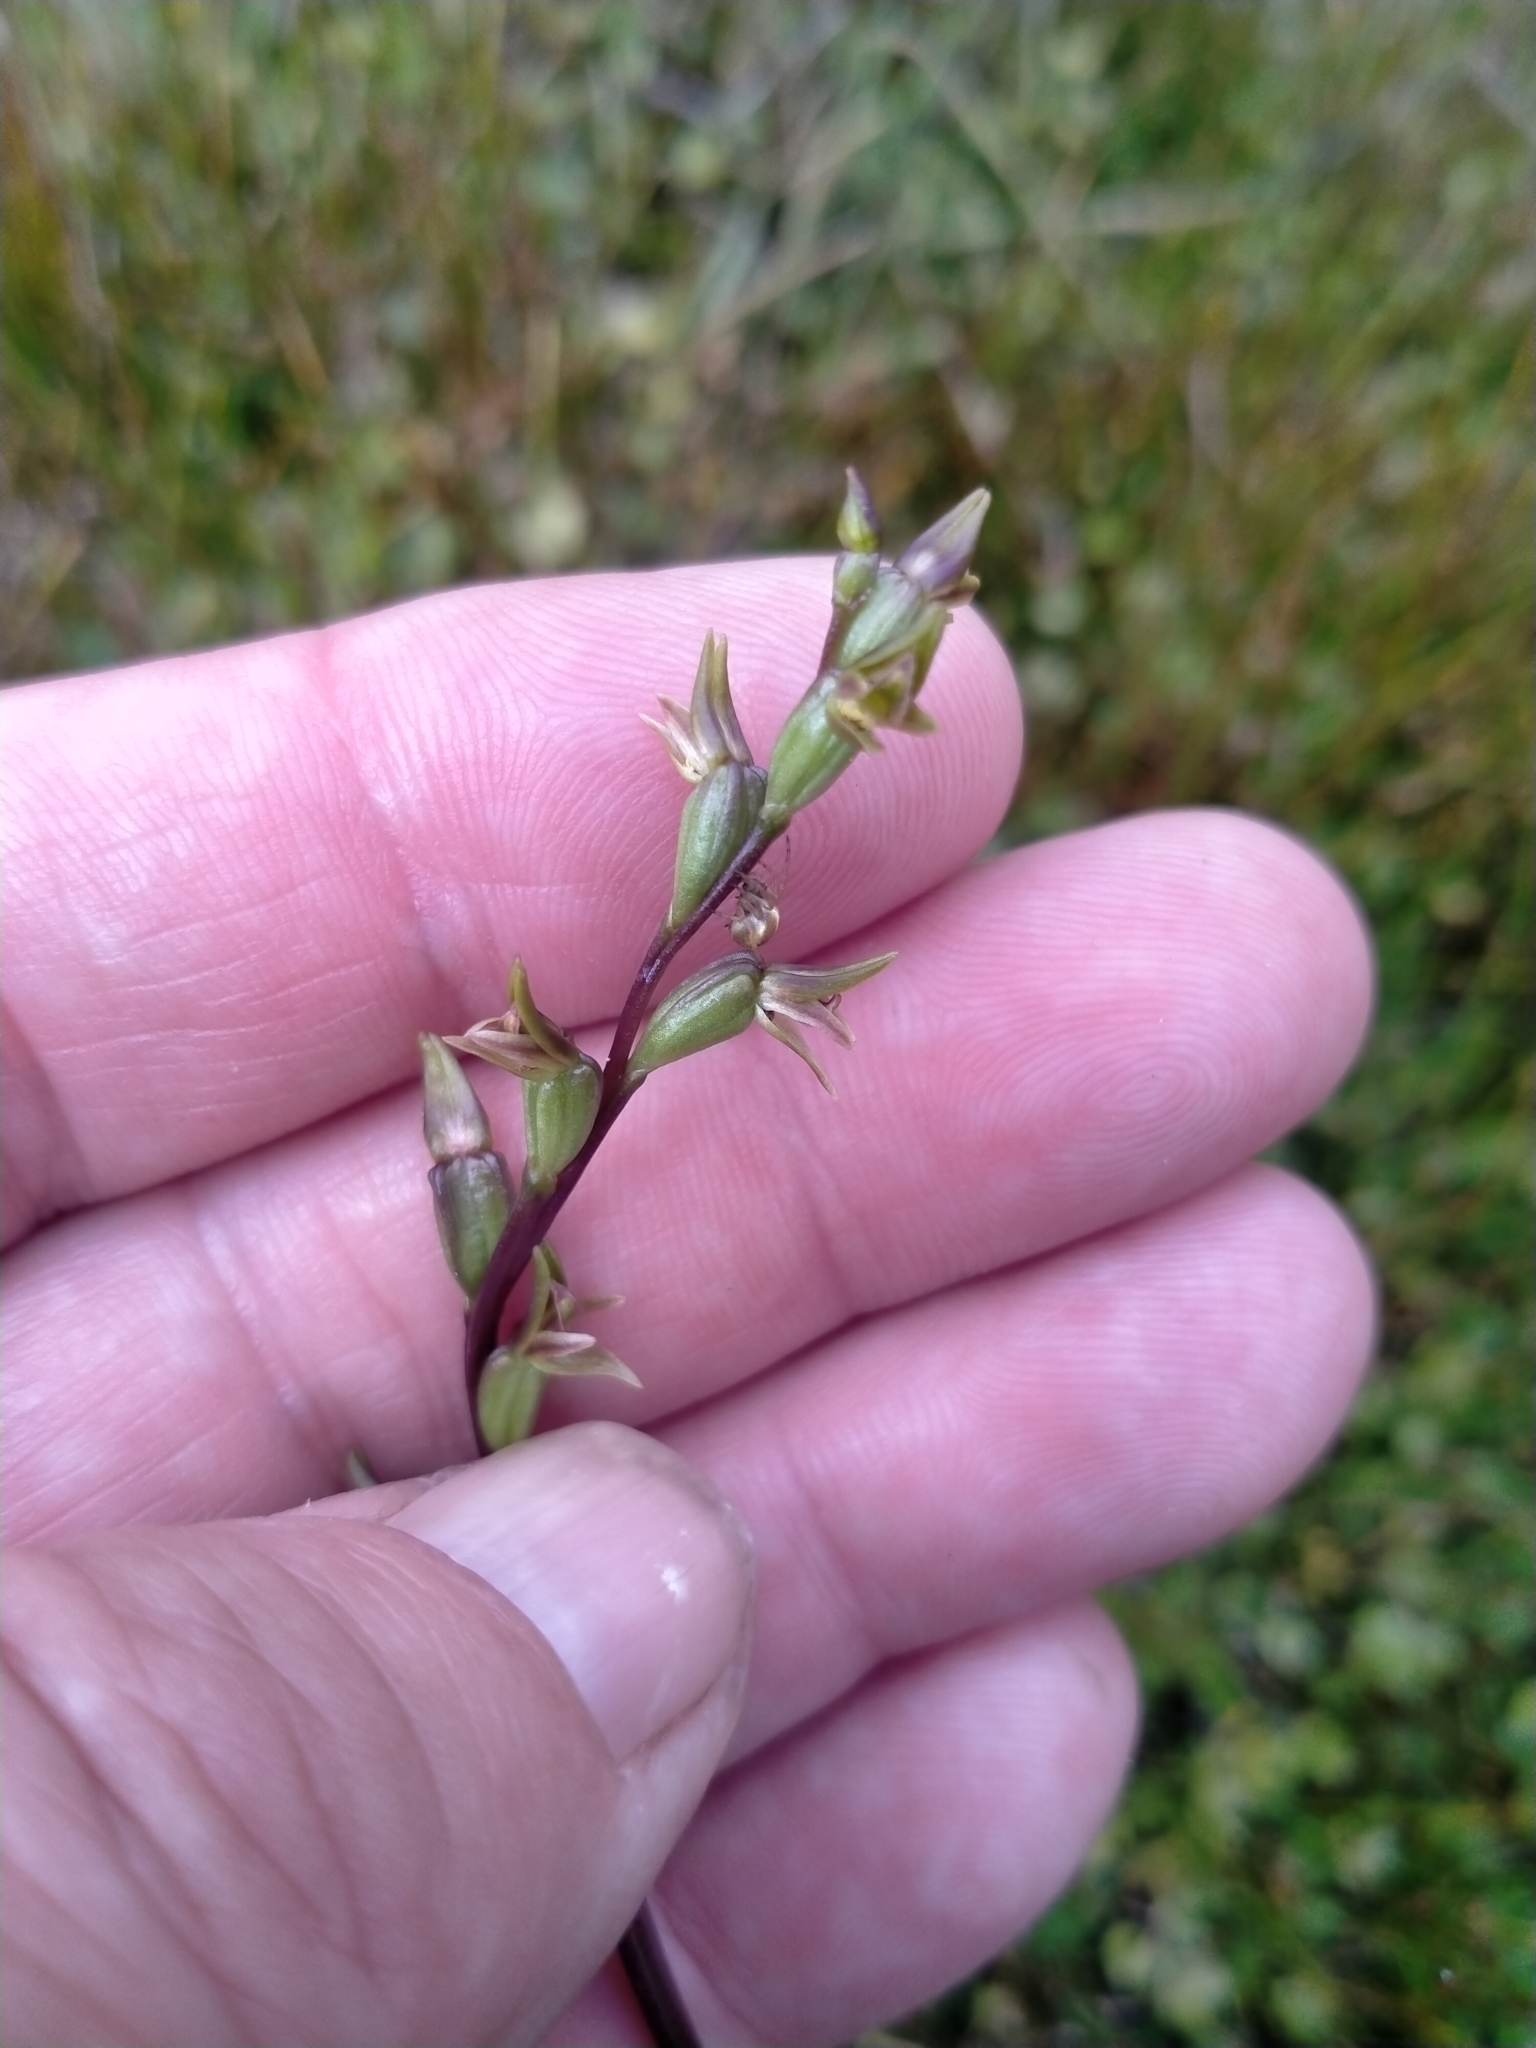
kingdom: Plantae
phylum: Tracheophyta
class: Liliopsida
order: Asparagales
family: Orchidaceae
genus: Prasophyllum
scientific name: Prasophyllum colensoi
